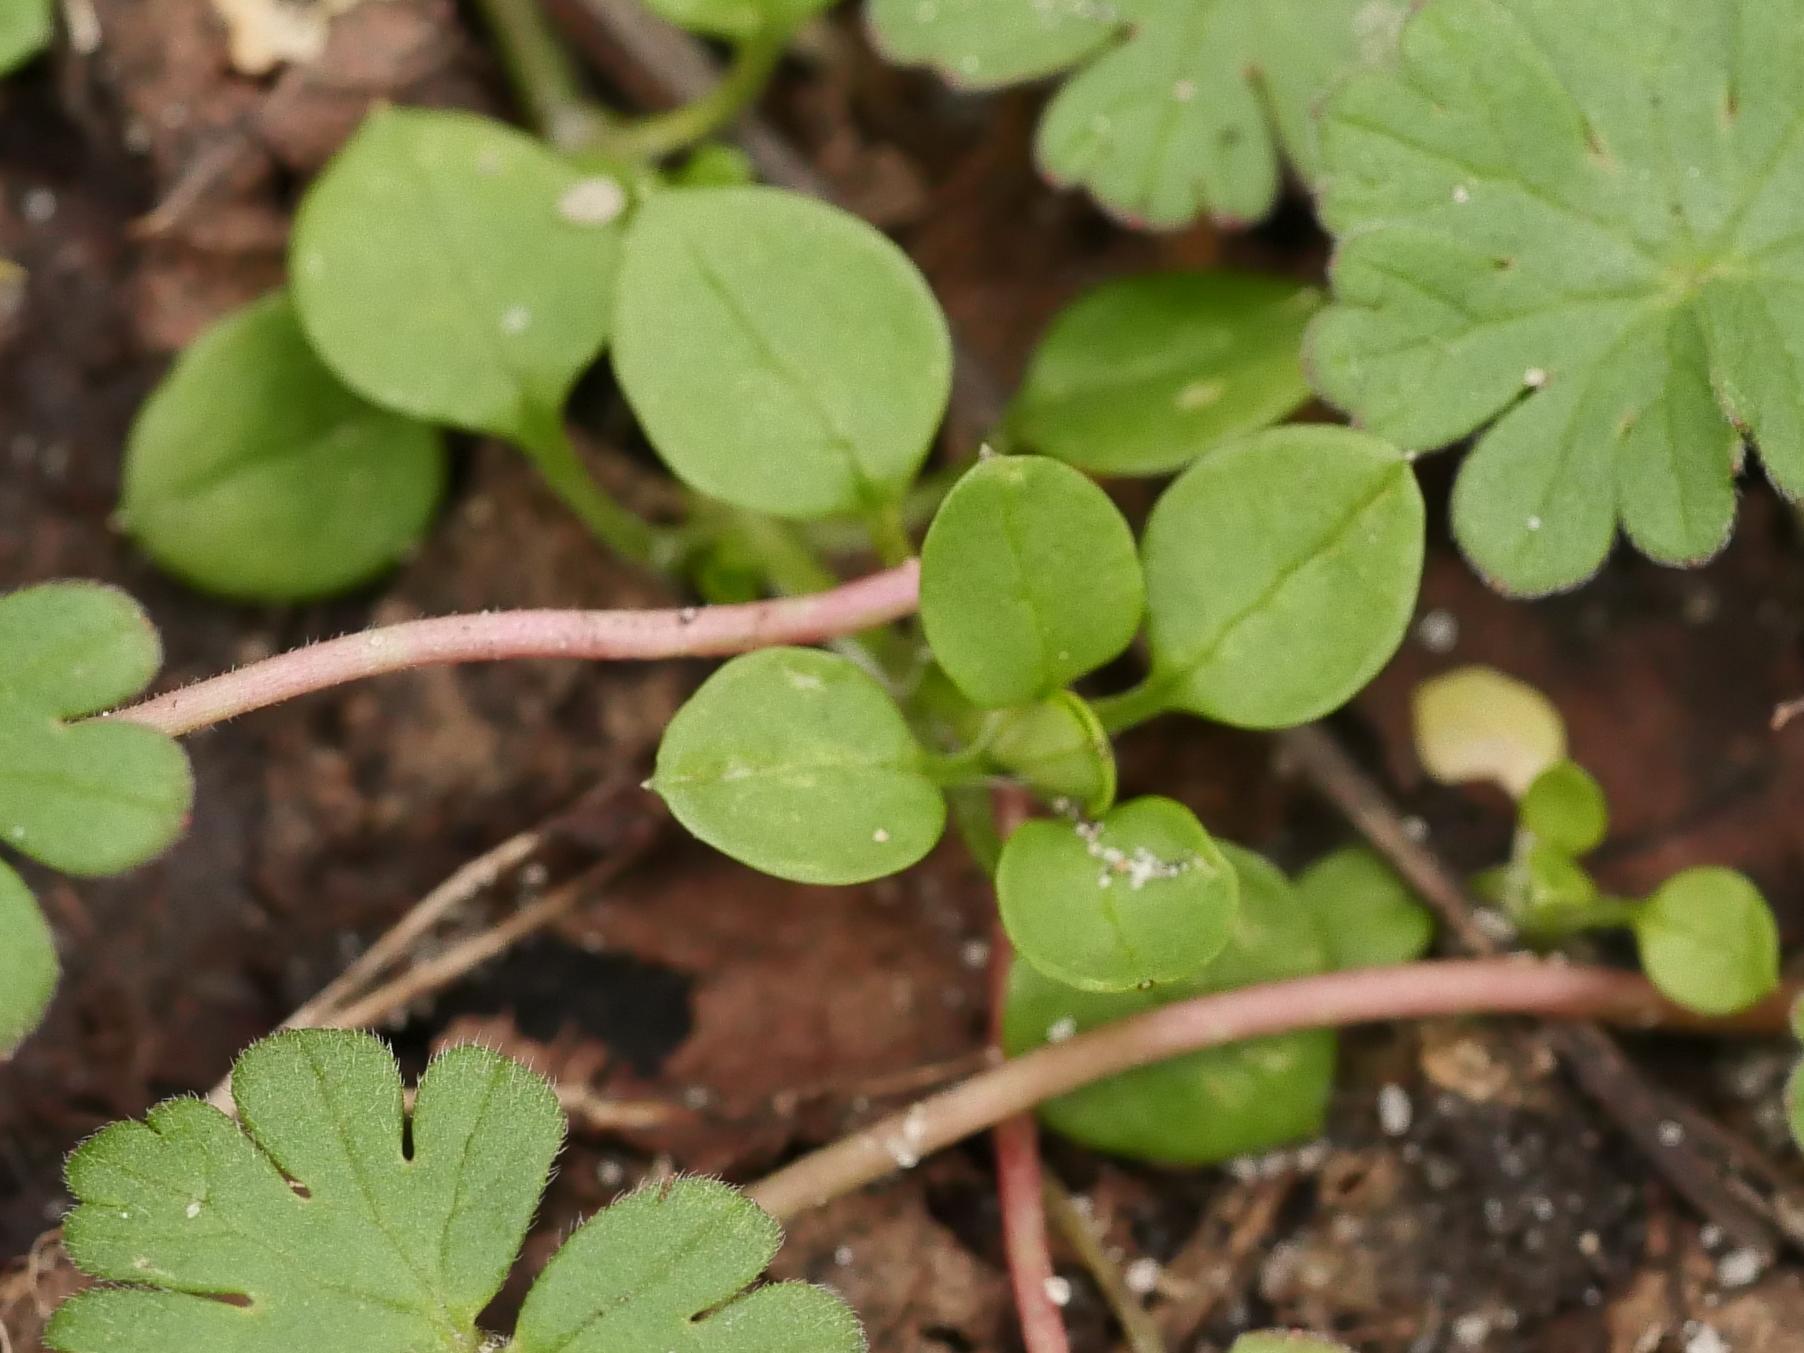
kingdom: Plantae
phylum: Tracheophyta
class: Magnoliopsida
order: Caryophyllales
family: Caryophyllaceae
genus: Stellaria
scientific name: Stellaria media
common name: Common chickweed
